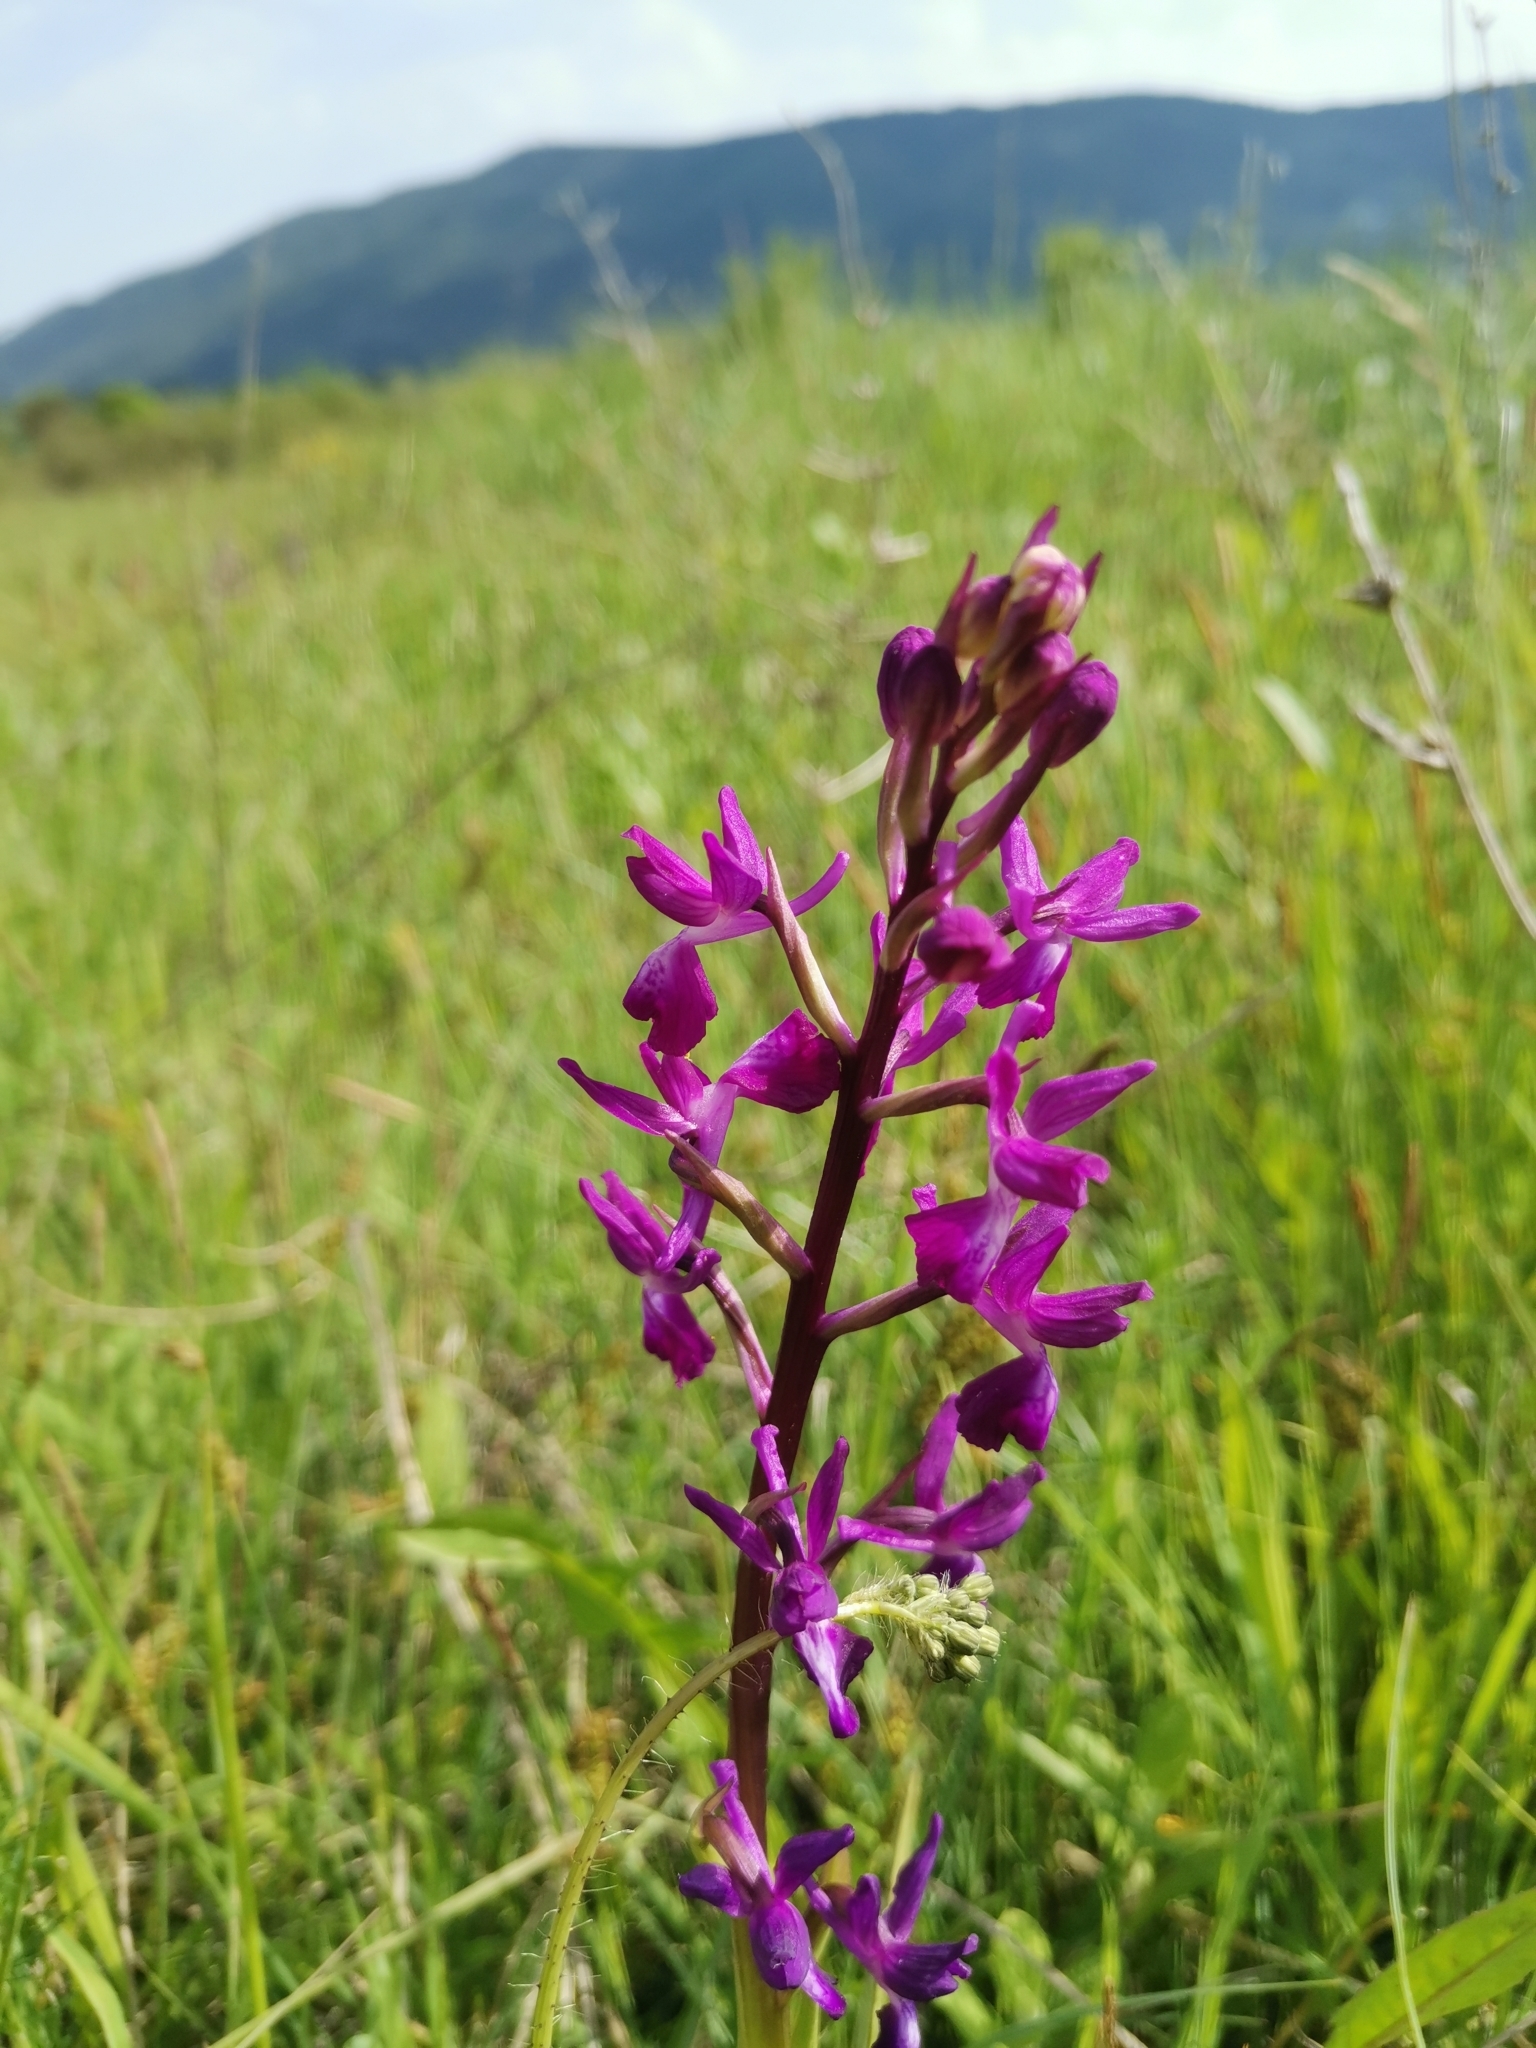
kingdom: Plantae
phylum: Tracheophyta
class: Liliopsida
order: Asparagales
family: Orchidaceae
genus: Anacamptis
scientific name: Anacamptis laxiflora
